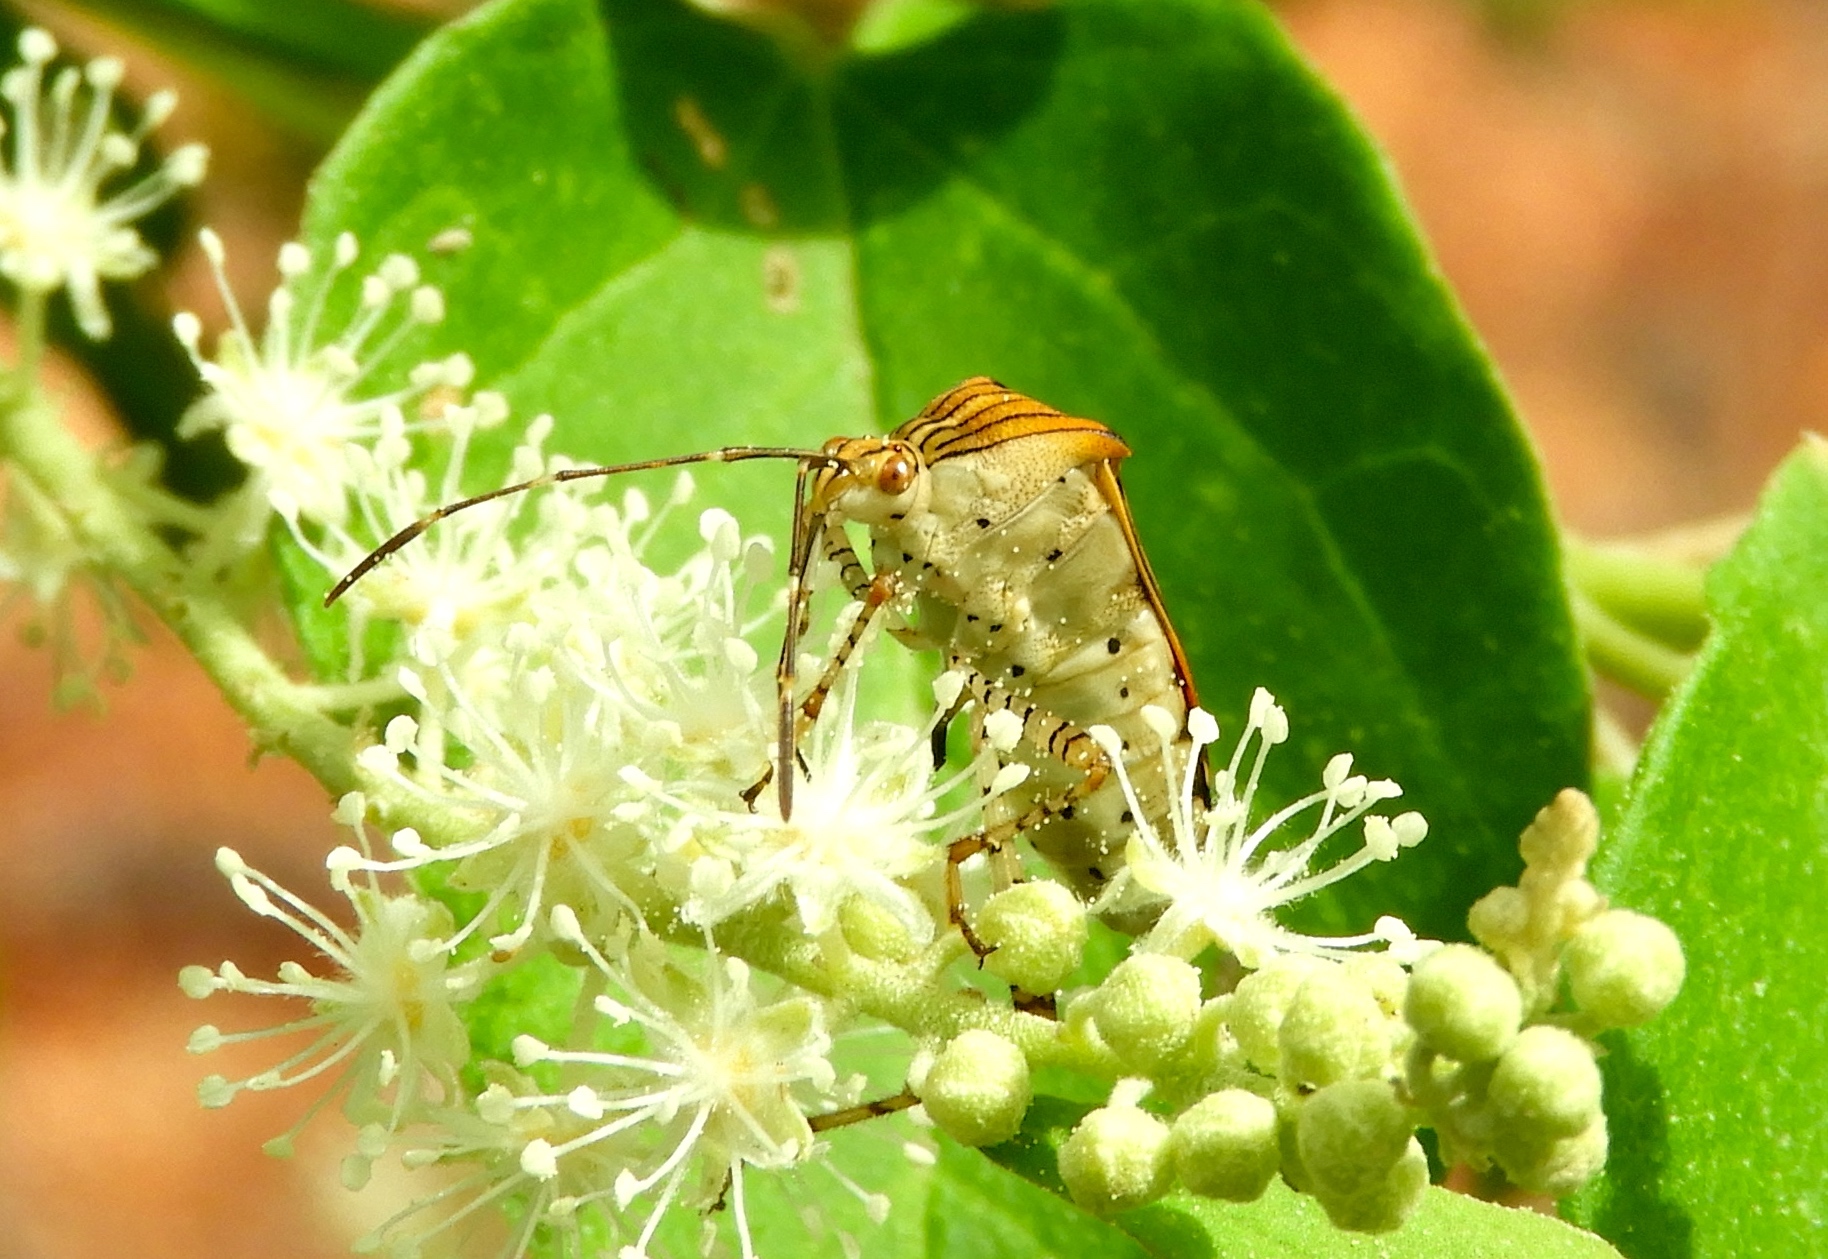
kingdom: Animalia
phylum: Arthropoda
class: Insecta
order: Hemiptera
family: Coreidae
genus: Hypselonotus
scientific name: Hypselonotus punctiventris
